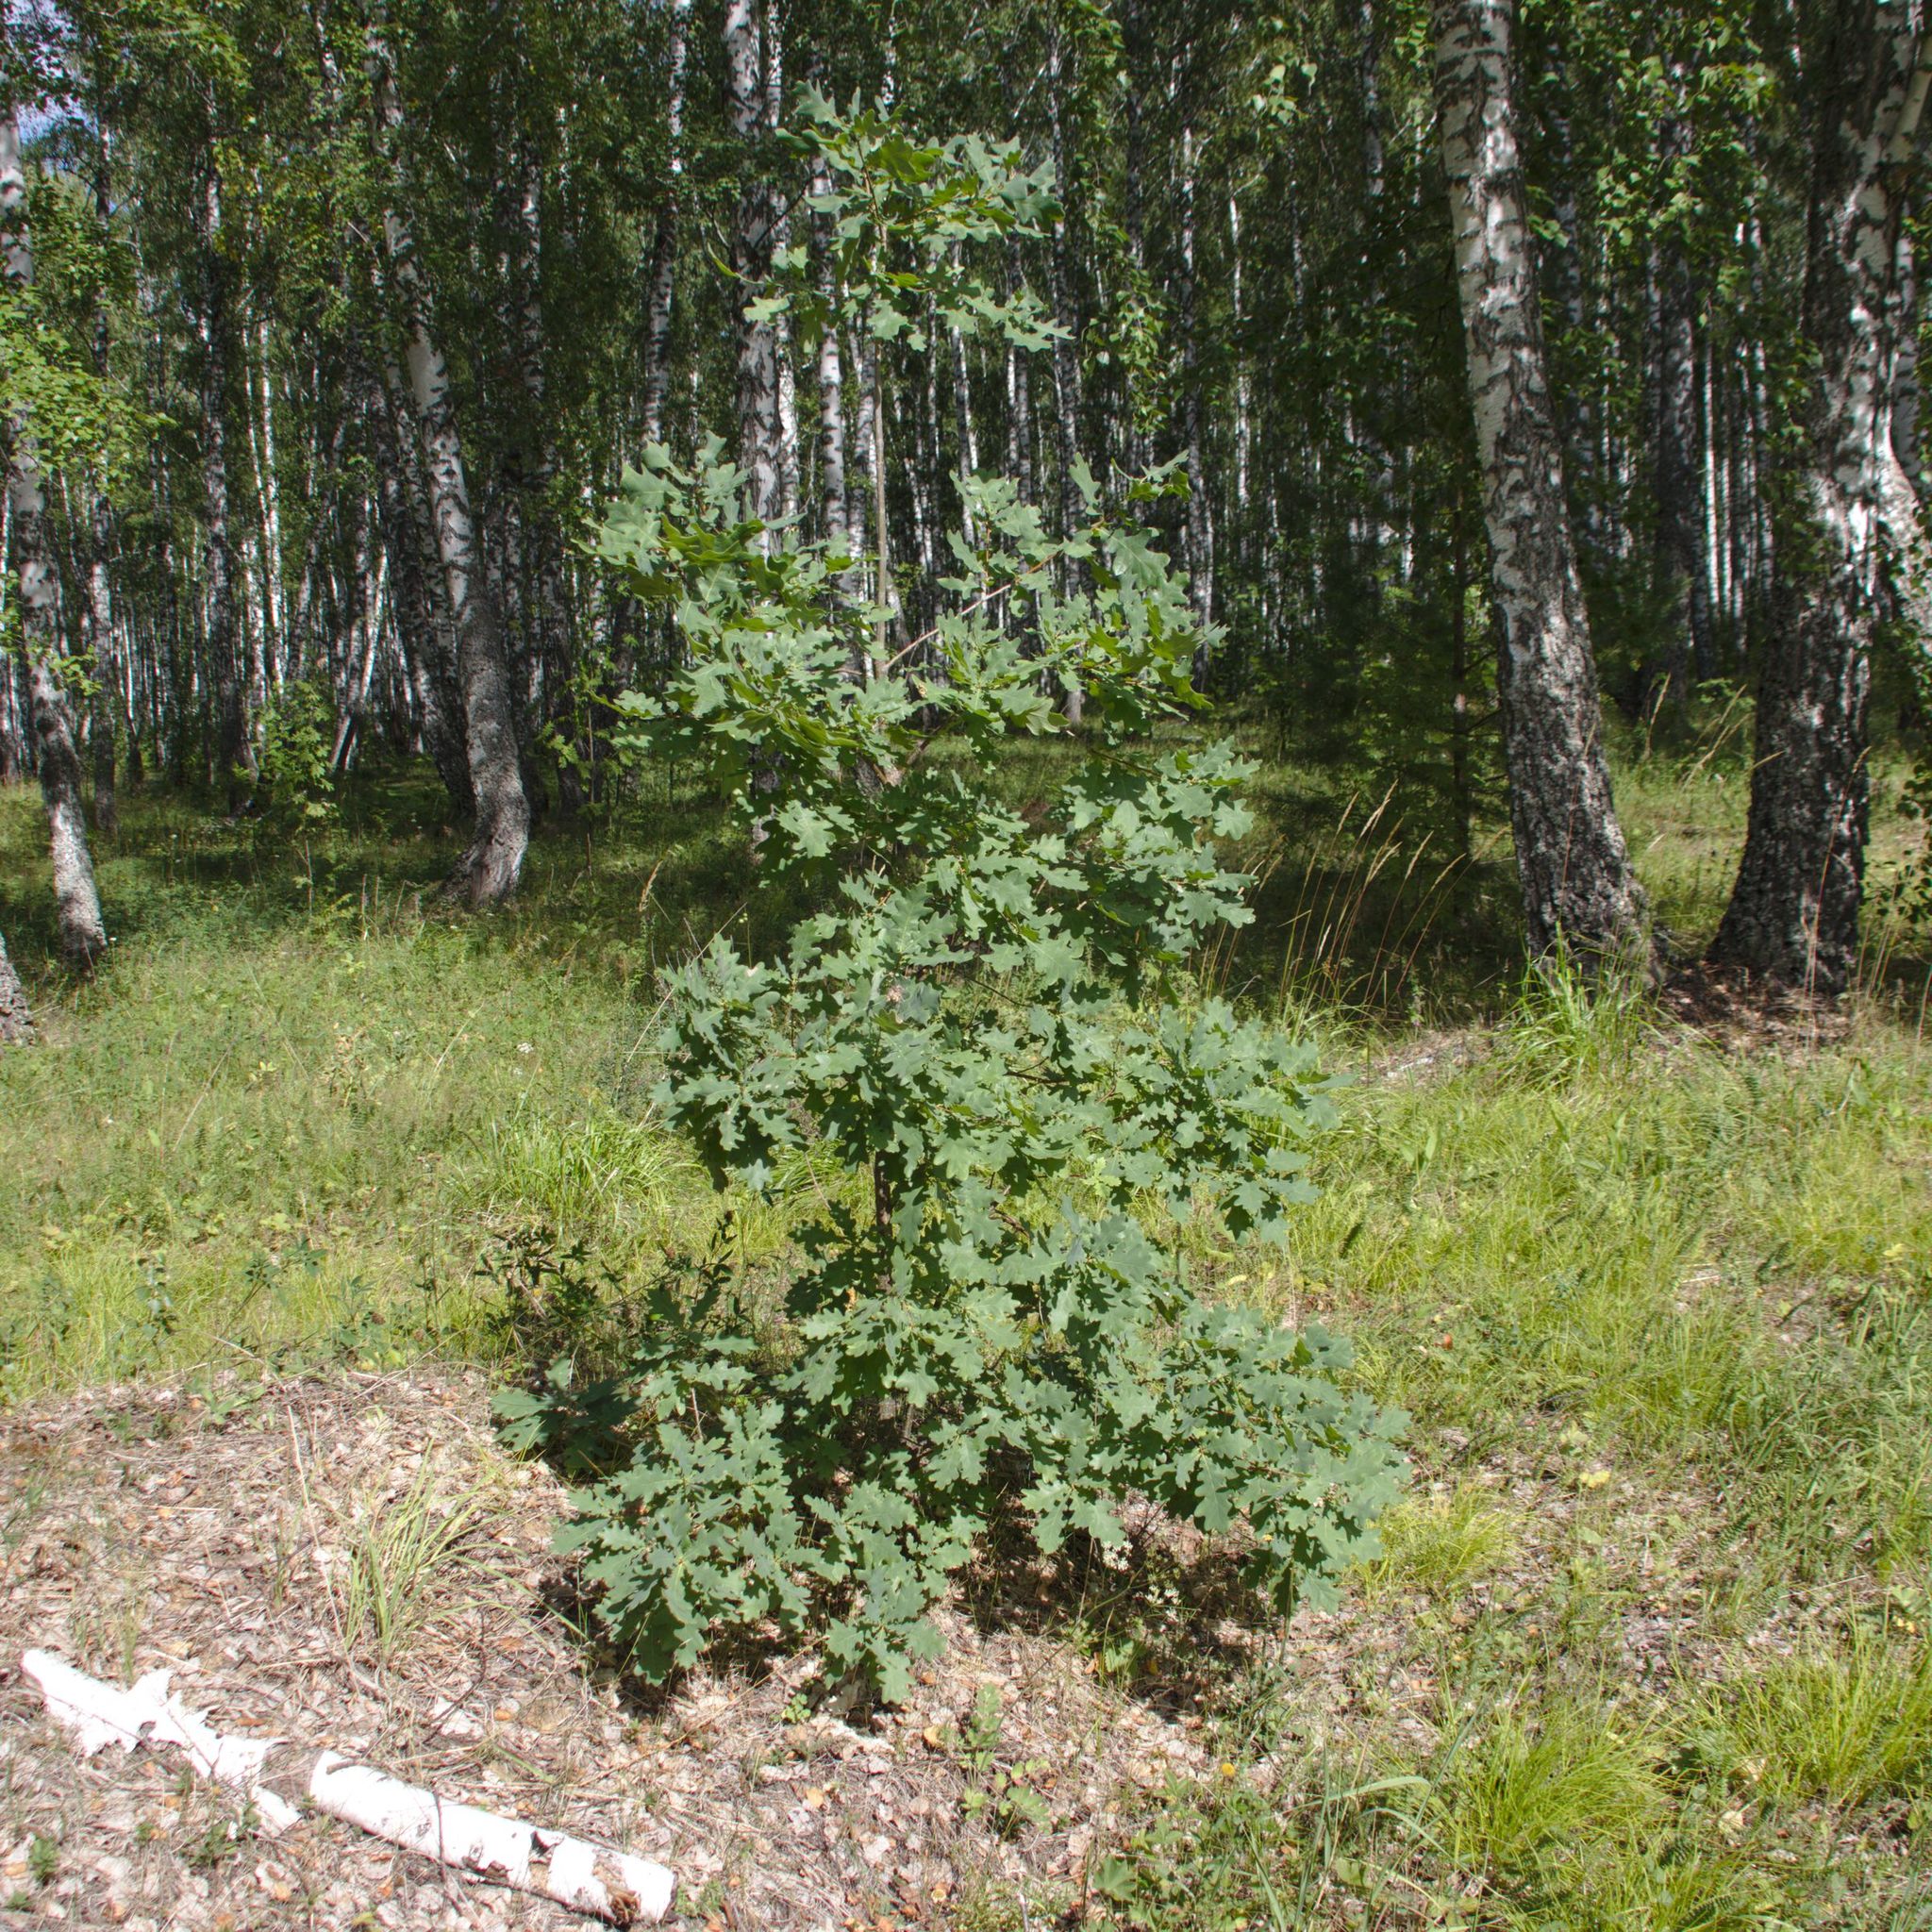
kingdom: Plantae
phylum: Tracheophyta
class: Magnoliopsida
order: Fagales
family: Fagaceae
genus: Quercus
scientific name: Quercus robur
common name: Pedunculate oak
